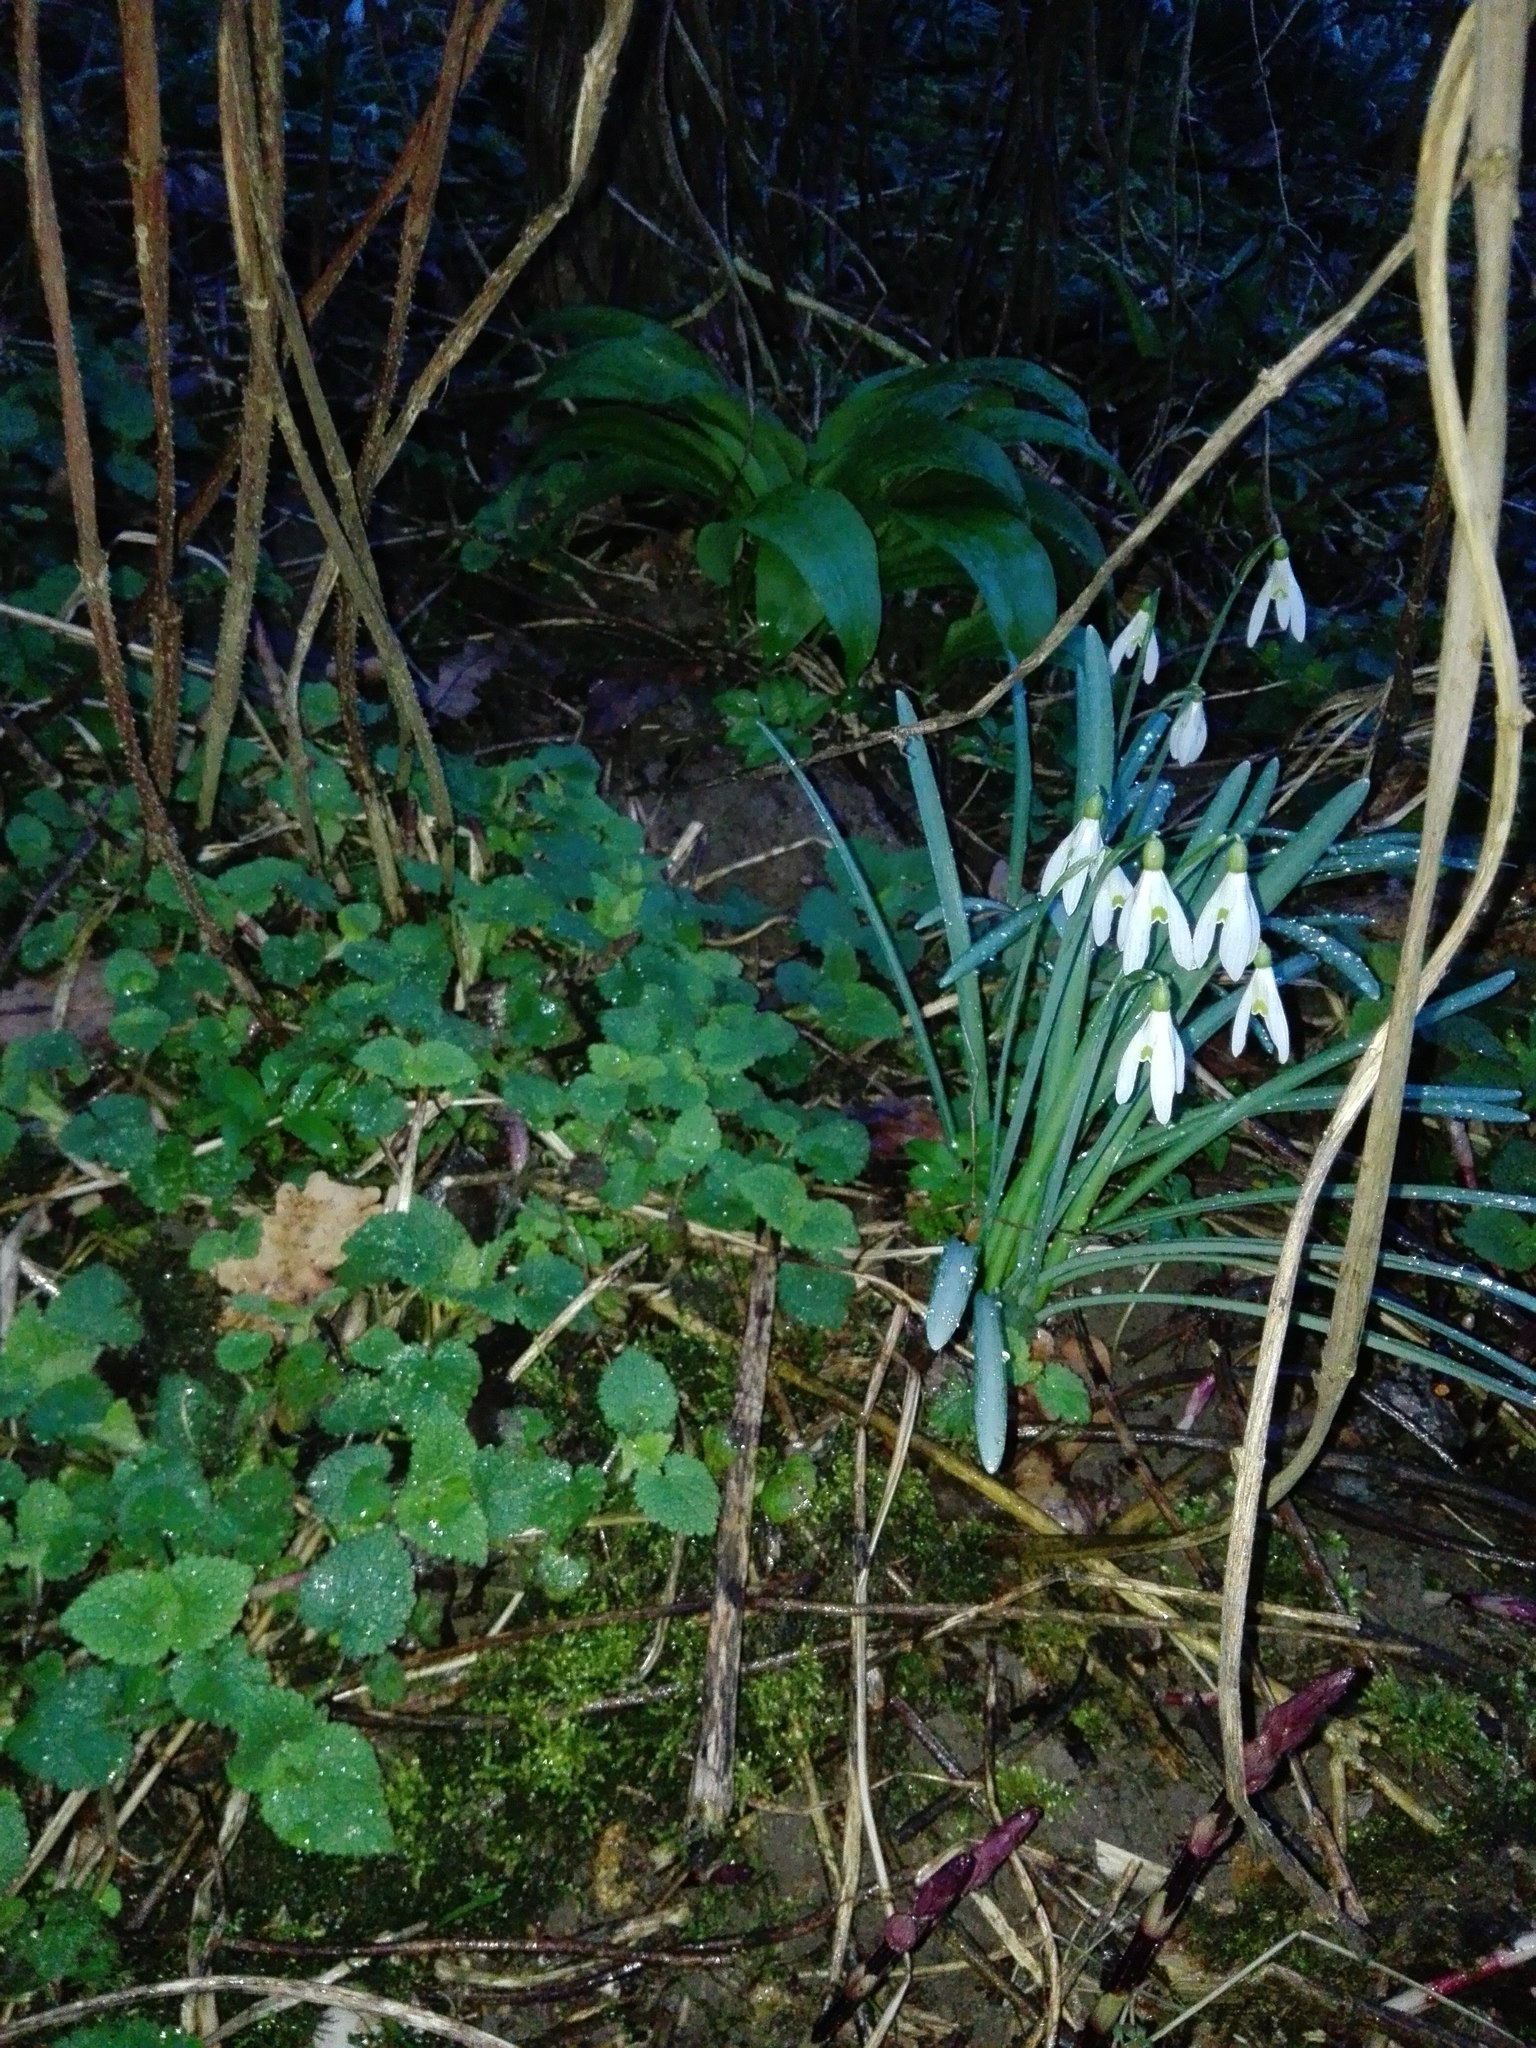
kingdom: Plantae
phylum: Tracheophyta
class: Liliopsida
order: Asparagales
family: Amaryllidaceae
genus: Galanthus
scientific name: Galanthus nivalis
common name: Snowdrop
